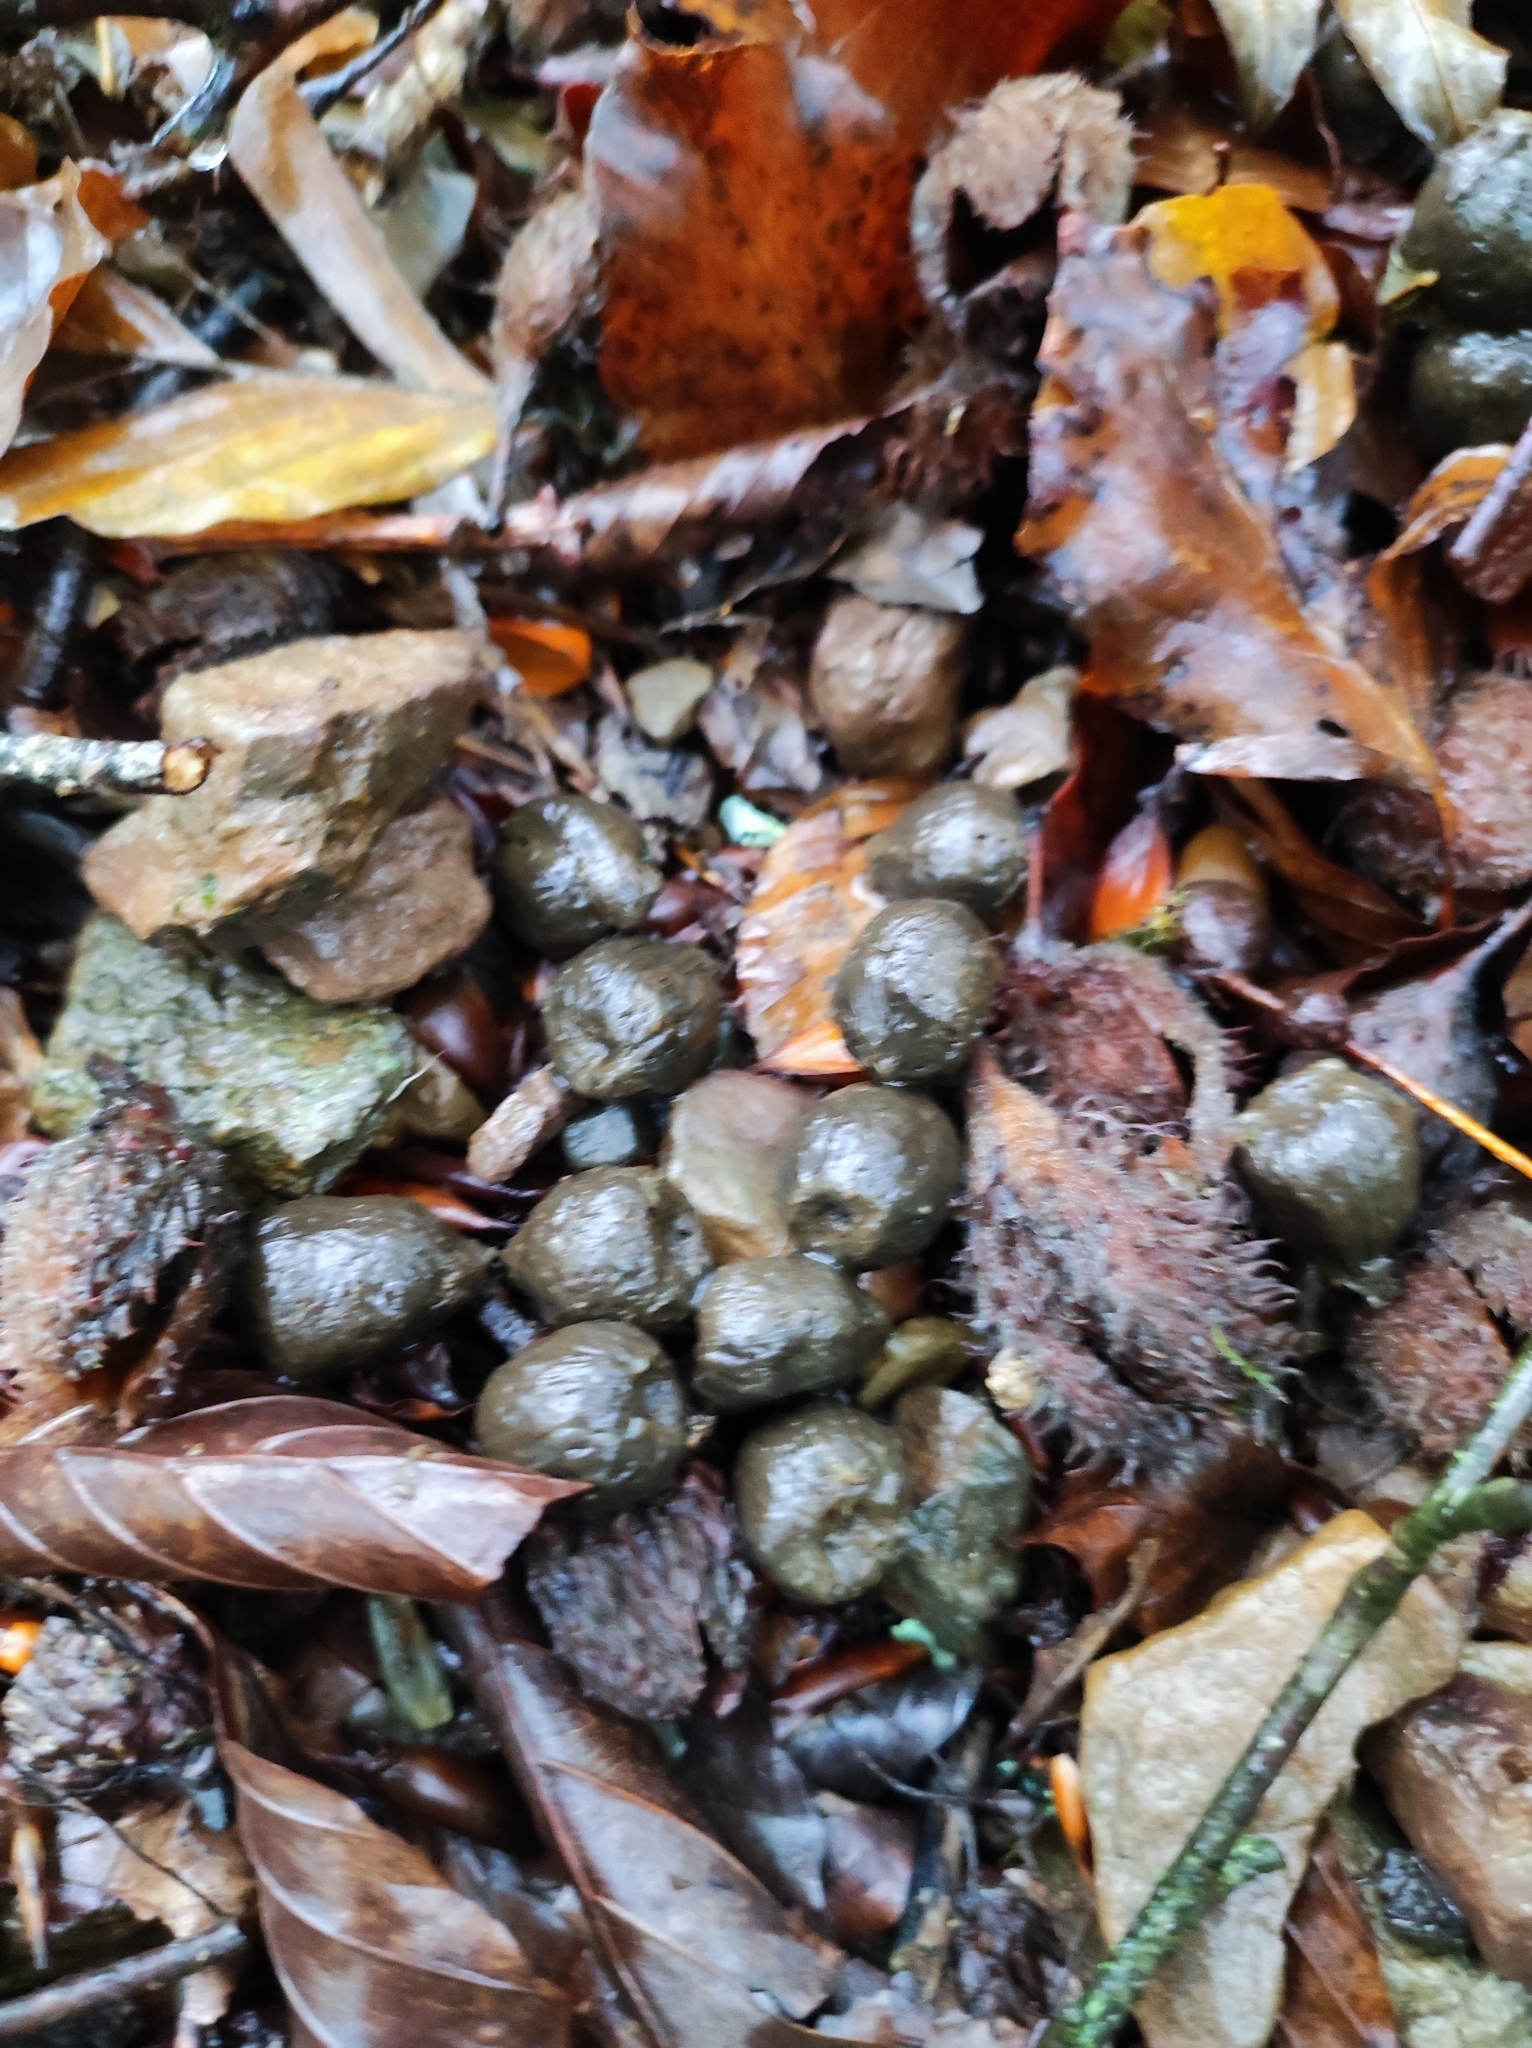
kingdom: Animalia
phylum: Chordata
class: Mammalia
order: Artiodactyla
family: Cervidae
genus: Capreolus
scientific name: Capreolus capreolus
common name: Western roe deer
